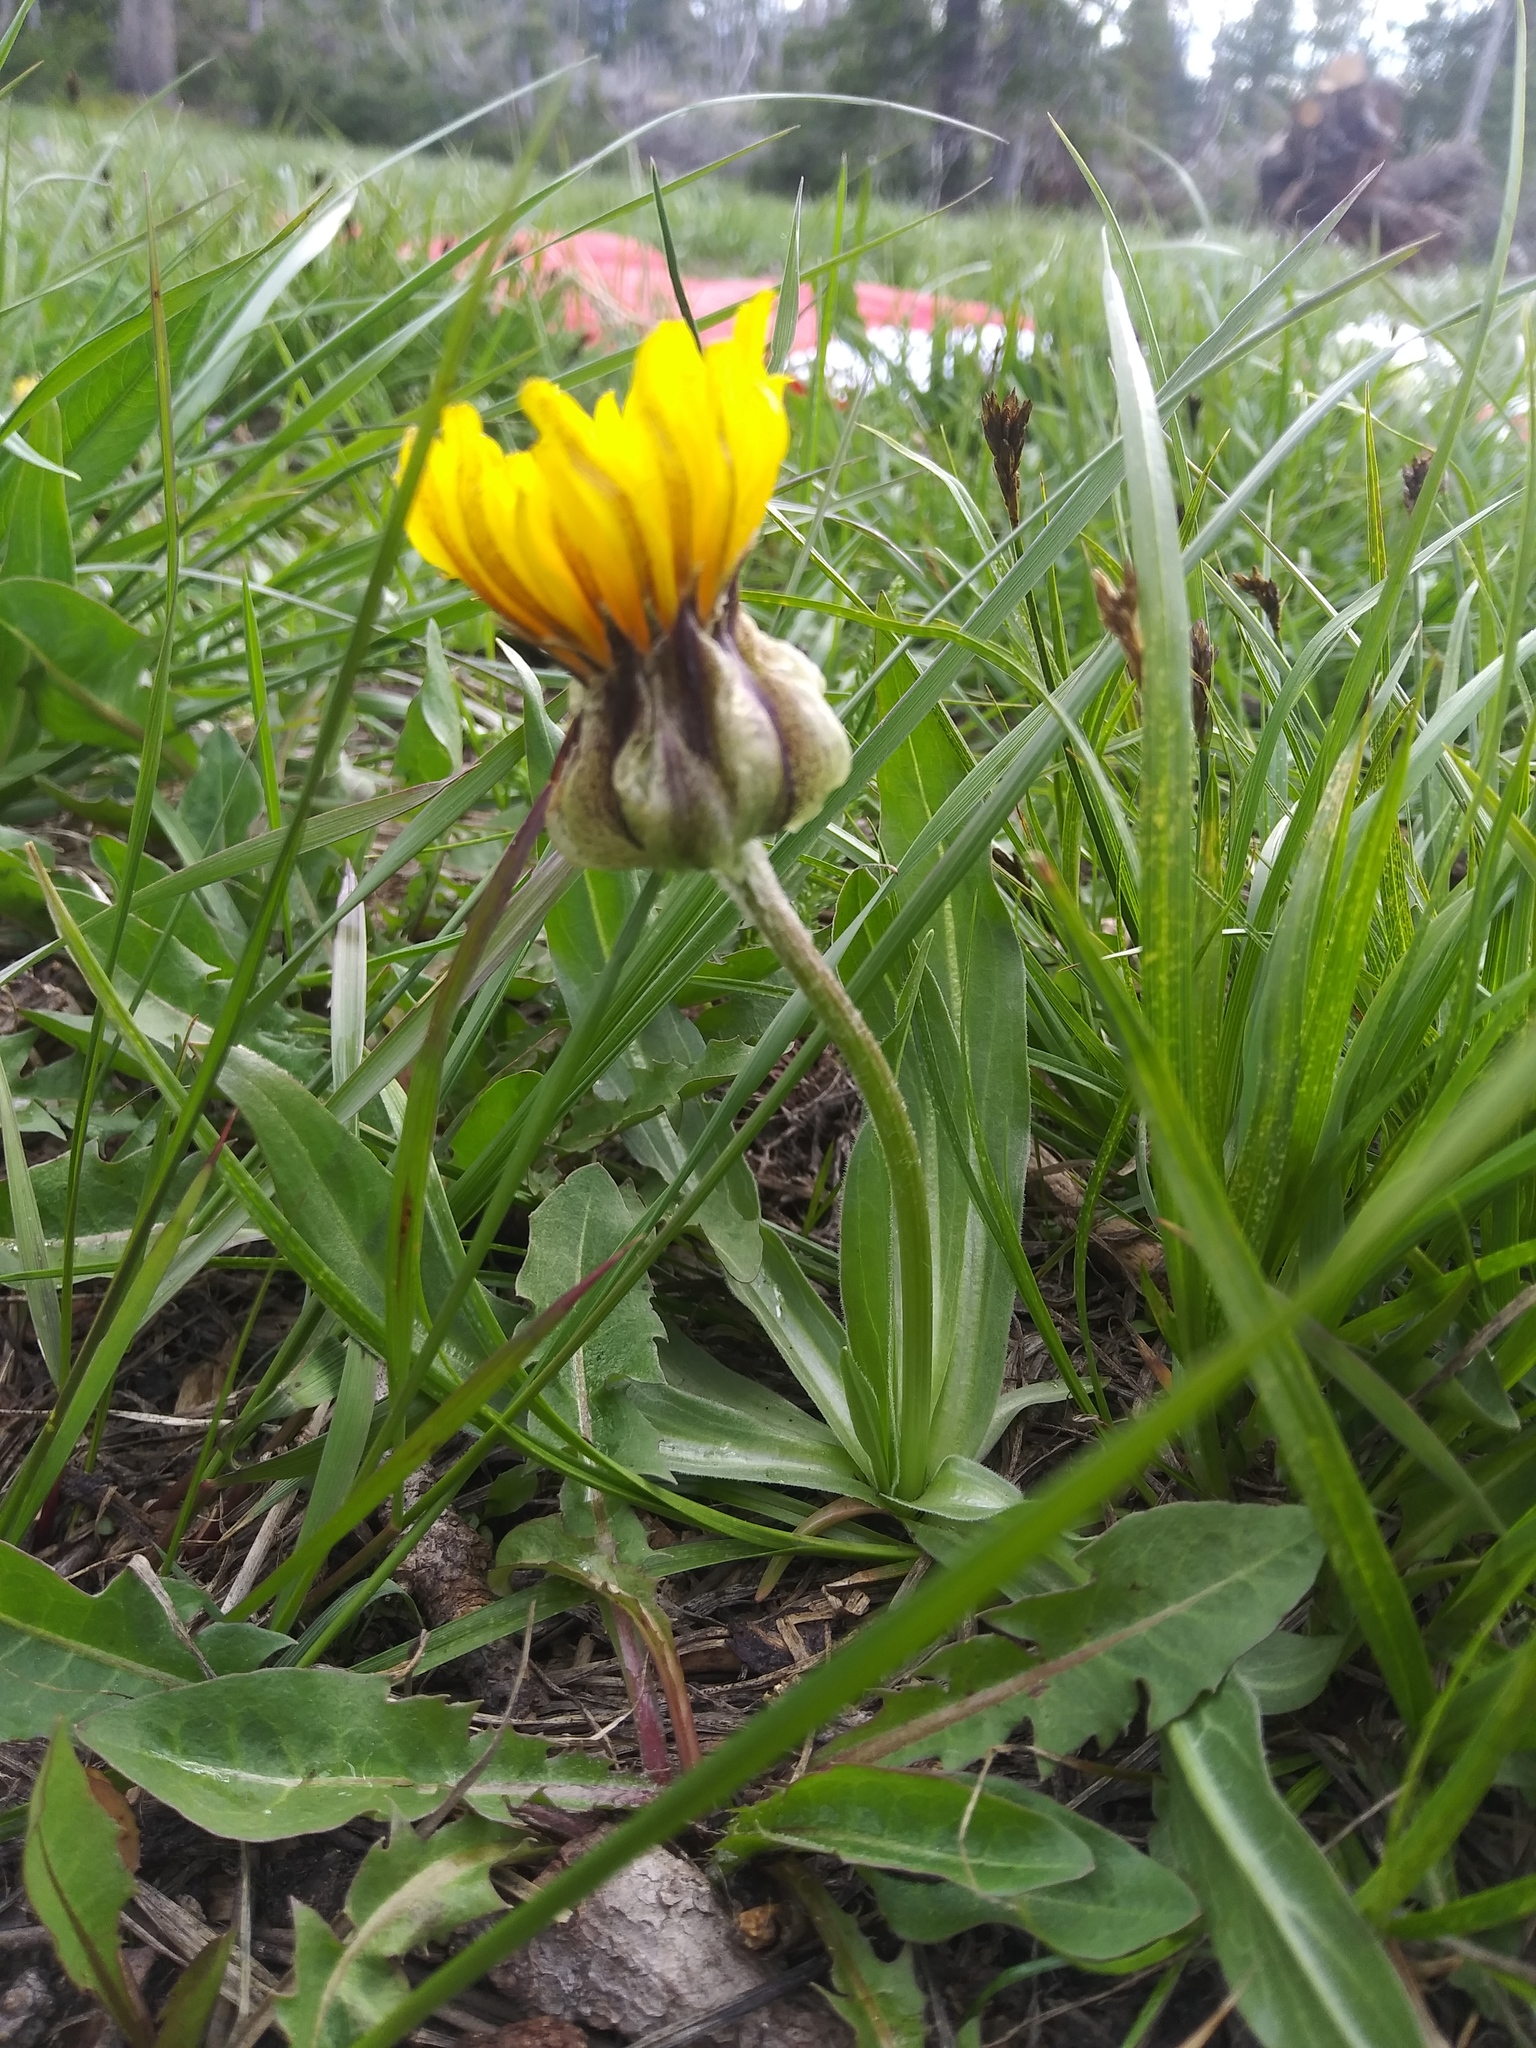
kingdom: Plantae
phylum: Tracheophyta
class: Magnoliopsida
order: Asterales
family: Asteraceae
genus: Microseris
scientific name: Microseris nigrescens
